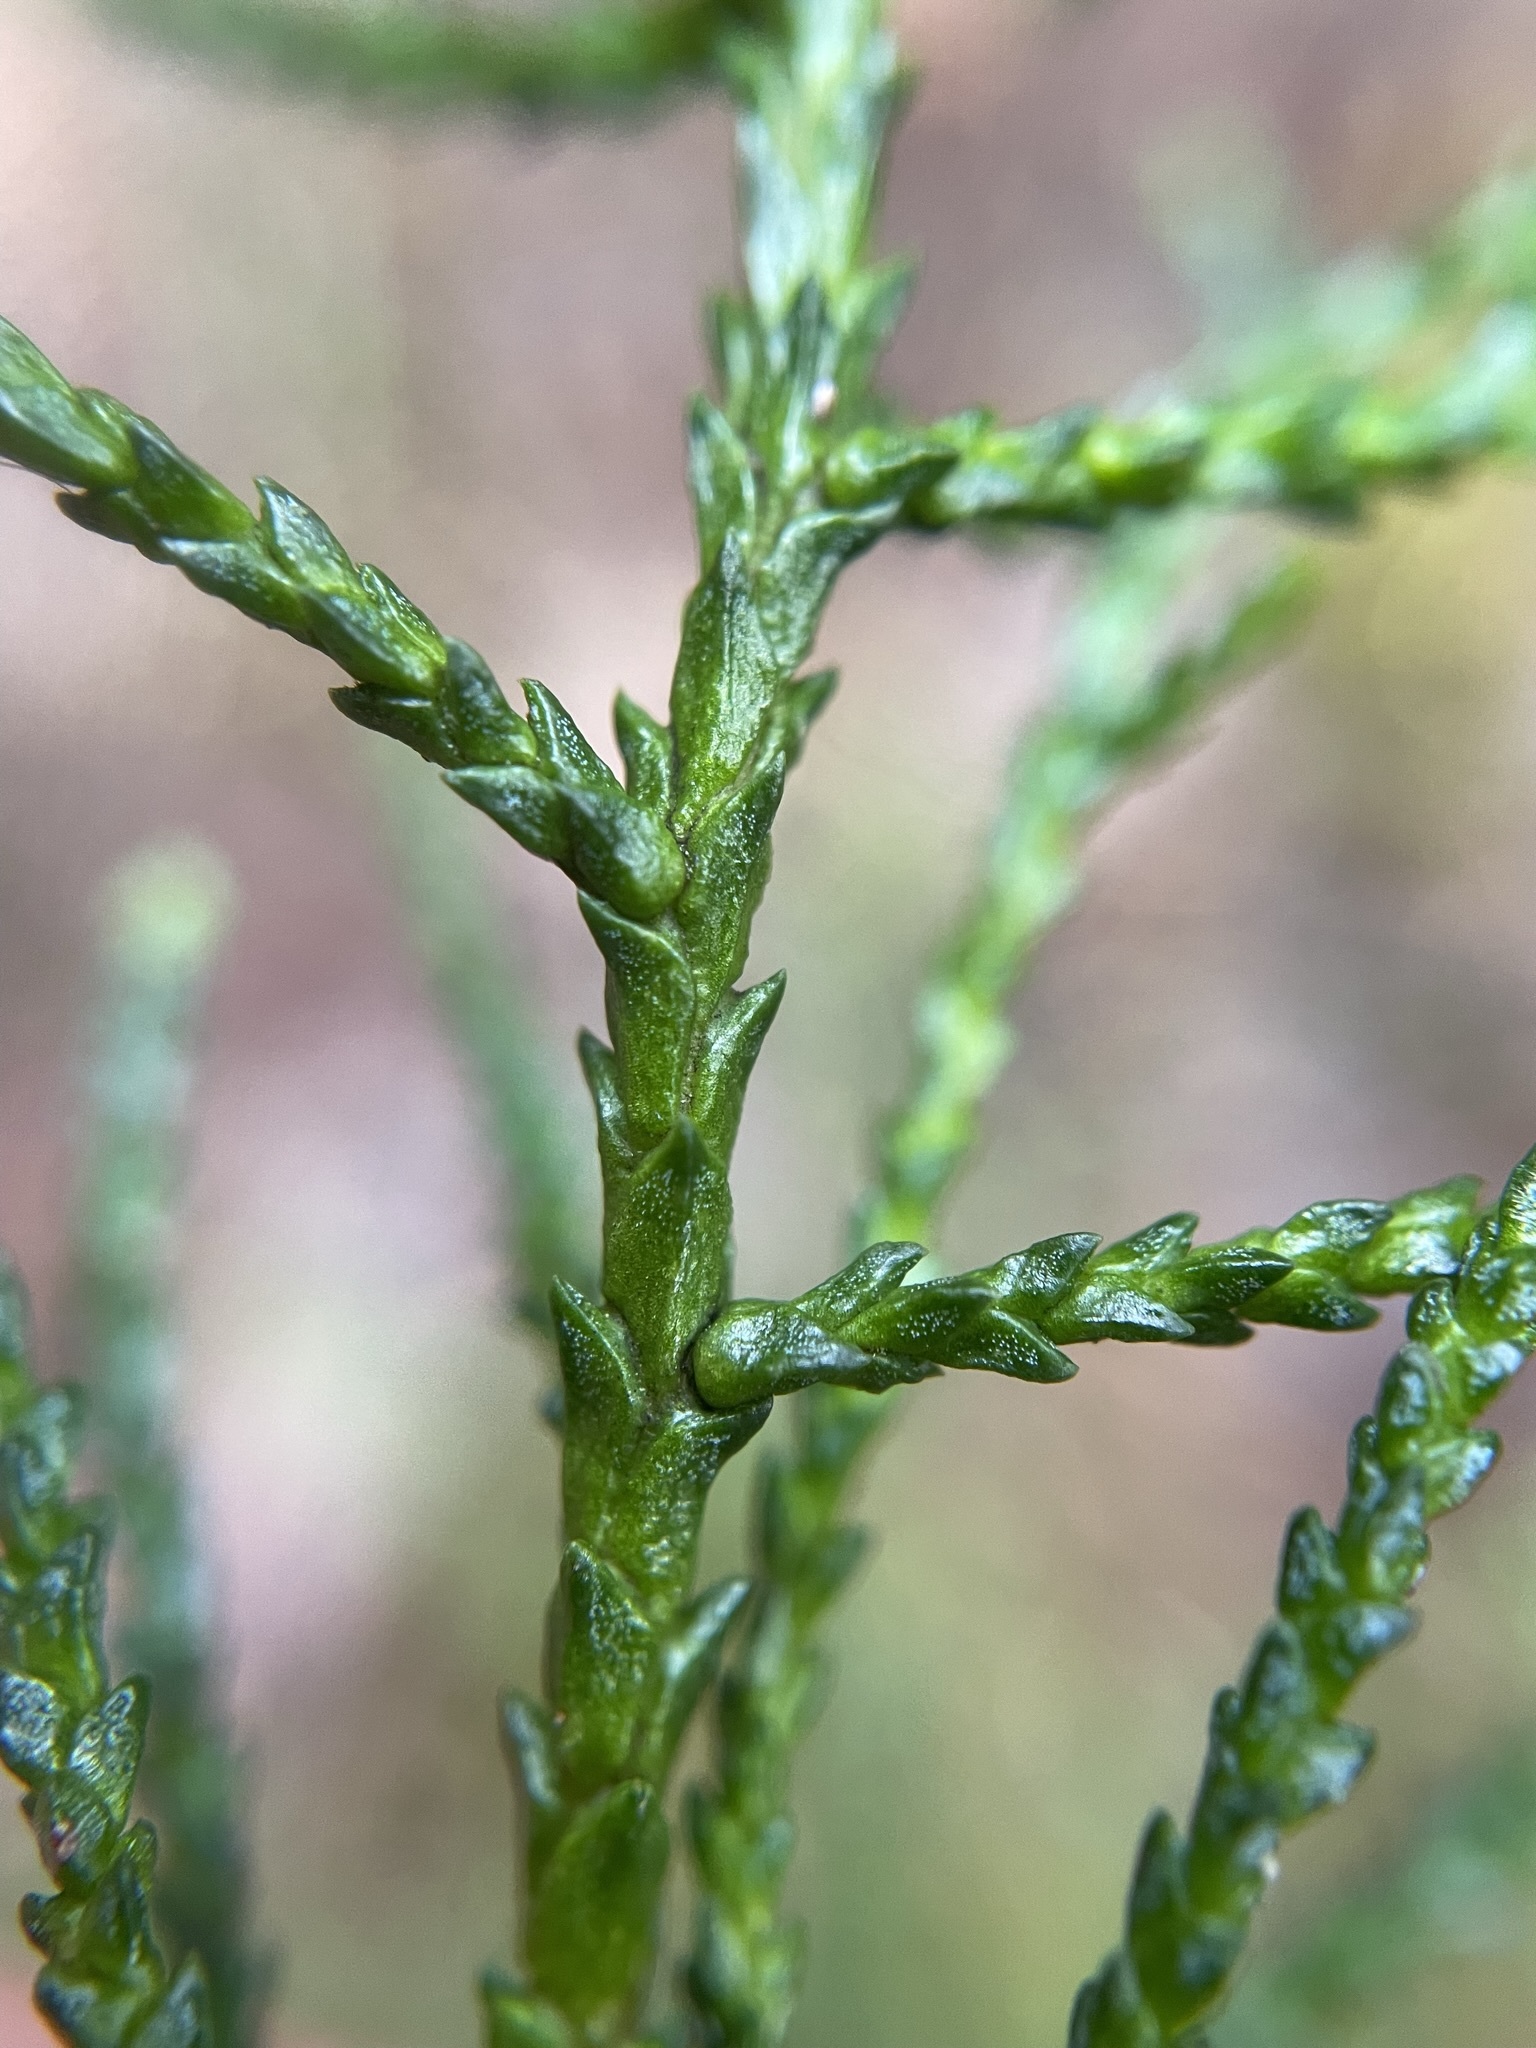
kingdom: Plantae
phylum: Tracheophyta
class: Pinopsida
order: Pinales
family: Podocarpaceae
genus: Lagarostrobos
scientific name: Lagarostrobos franklinii
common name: Huon pine
